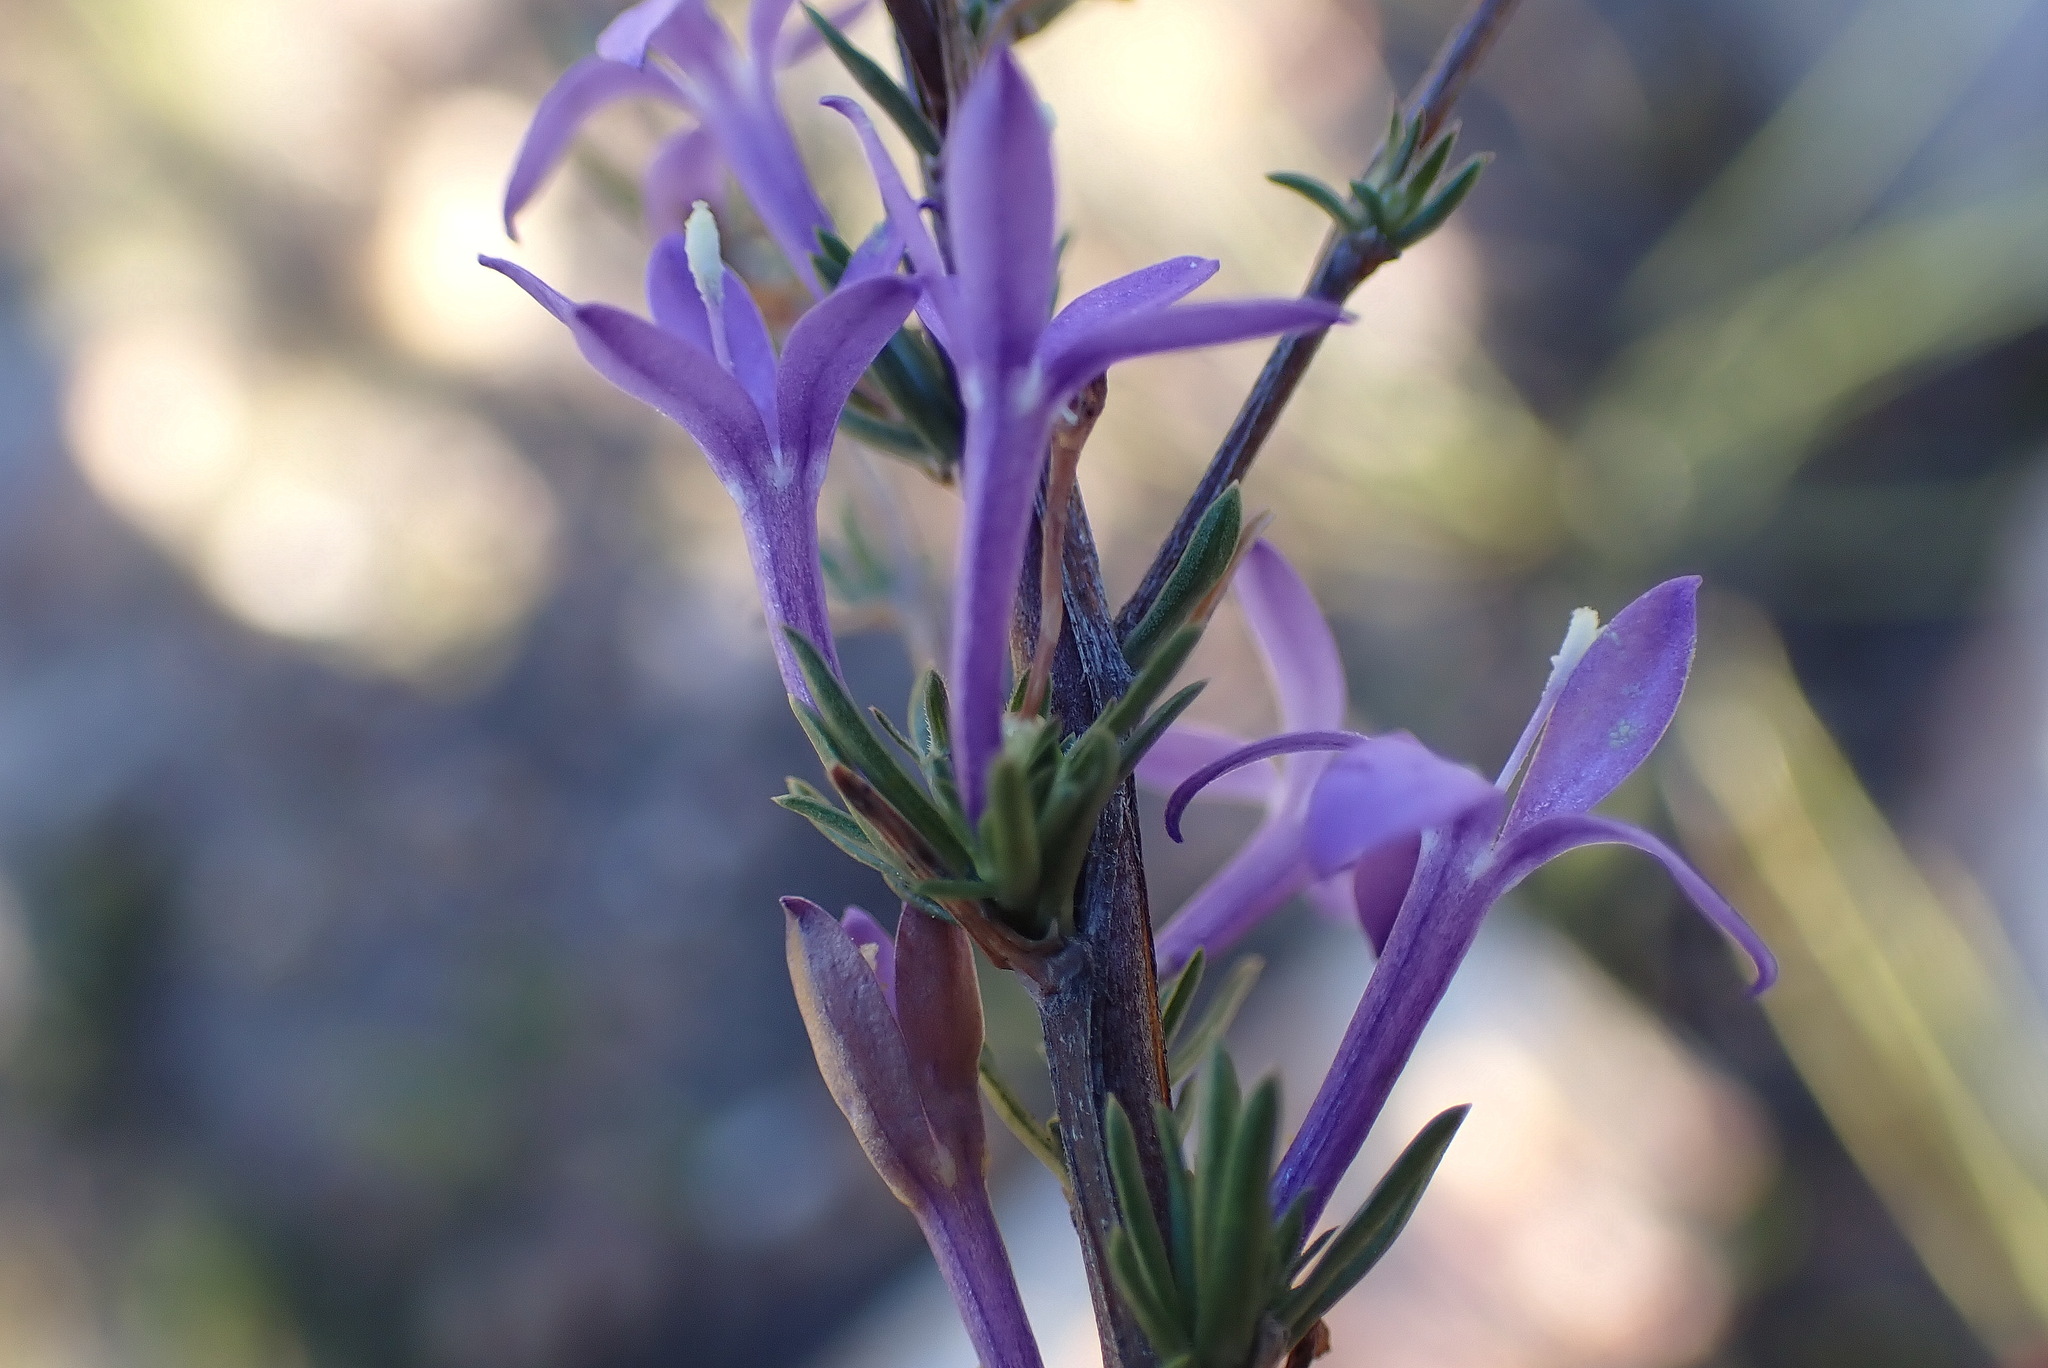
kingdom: Plantae
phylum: Tracheophyta
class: Magnoliopsida
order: Asterales
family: Campanulaceae
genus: Theilera
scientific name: Theilera guthriei
